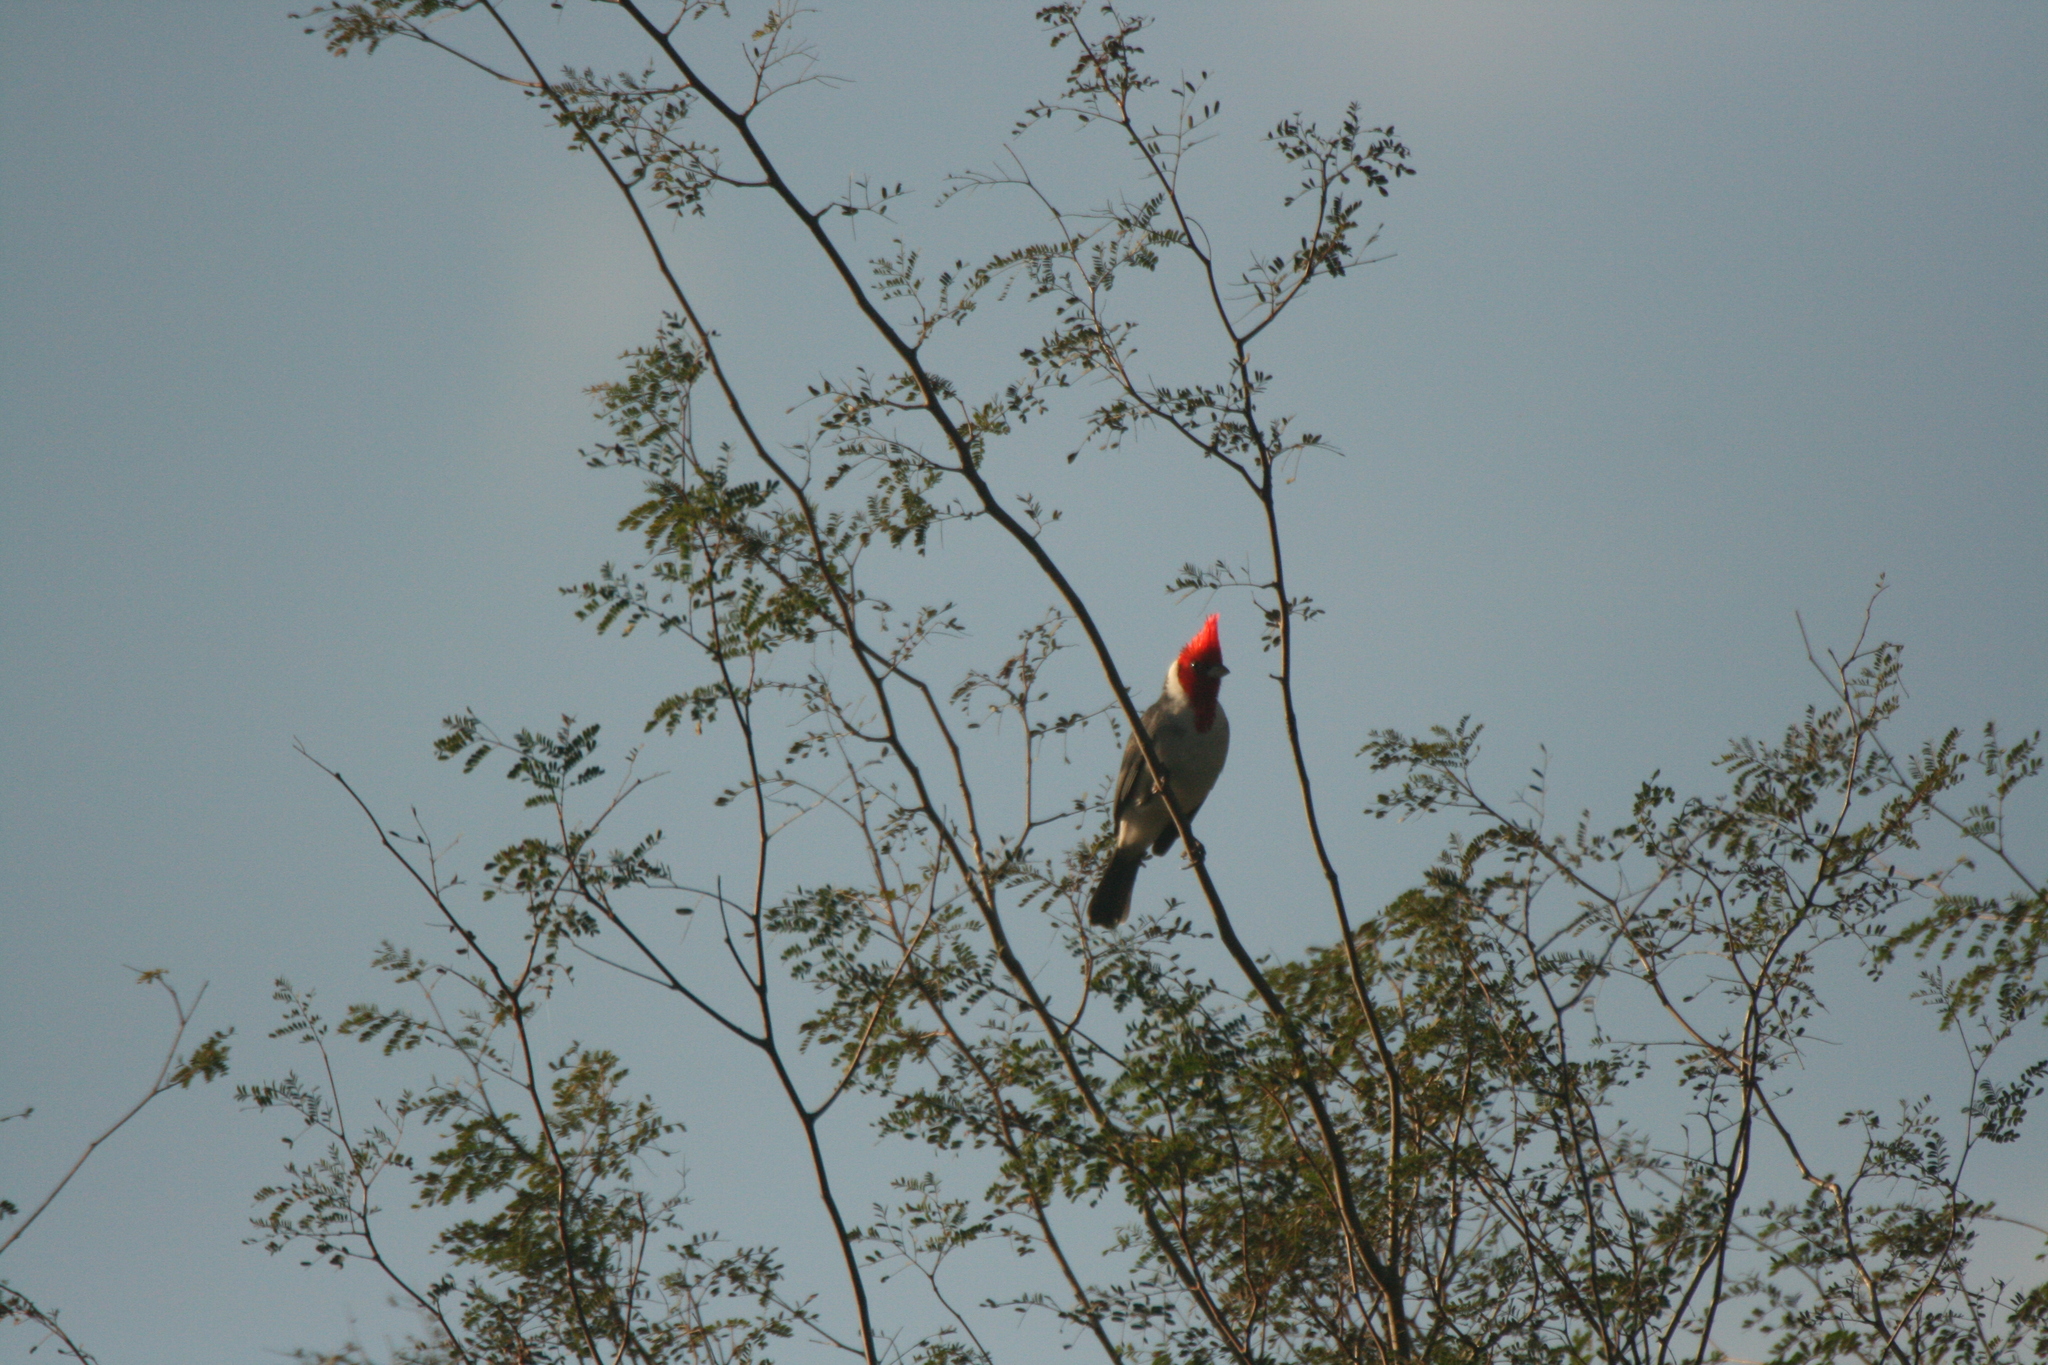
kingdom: Animalia
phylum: Chordata
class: Aves
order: Passeriformes
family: Thraupidae
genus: Paroaria
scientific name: Paroaria coronata
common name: Red-crested cardinal
